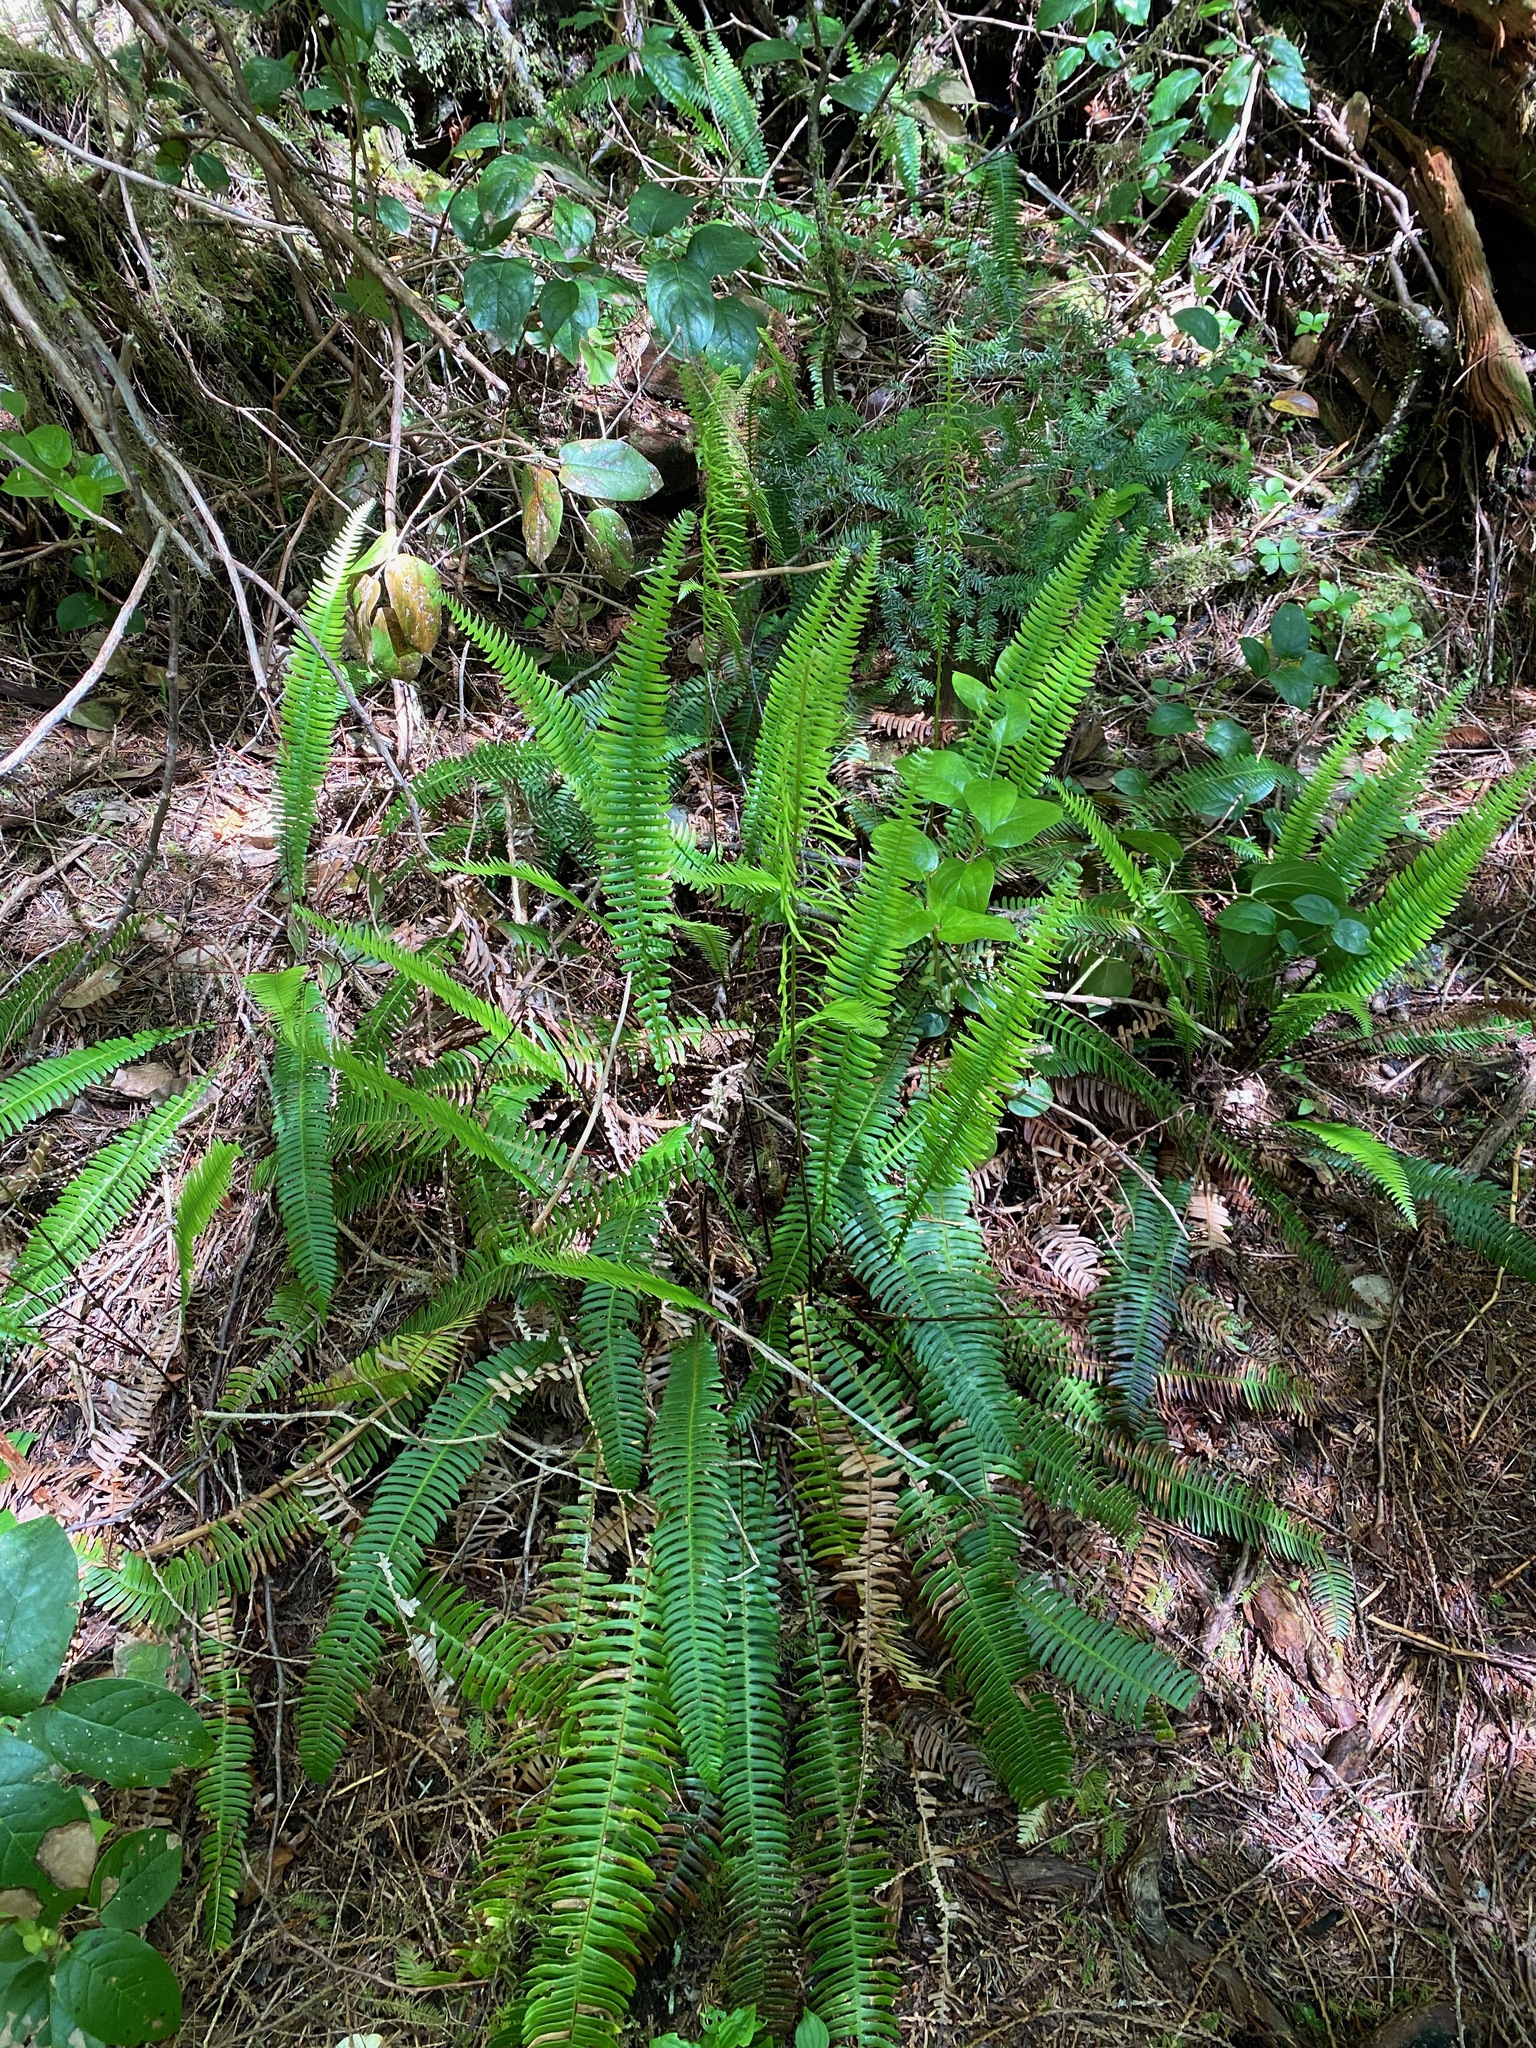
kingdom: Plantae
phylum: Tracheophyta
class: Polypodiopsida
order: Polypodiales
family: Blechnaceae
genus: Struthiopteris
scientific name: Struthiopteris spicant
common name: Deer fern
